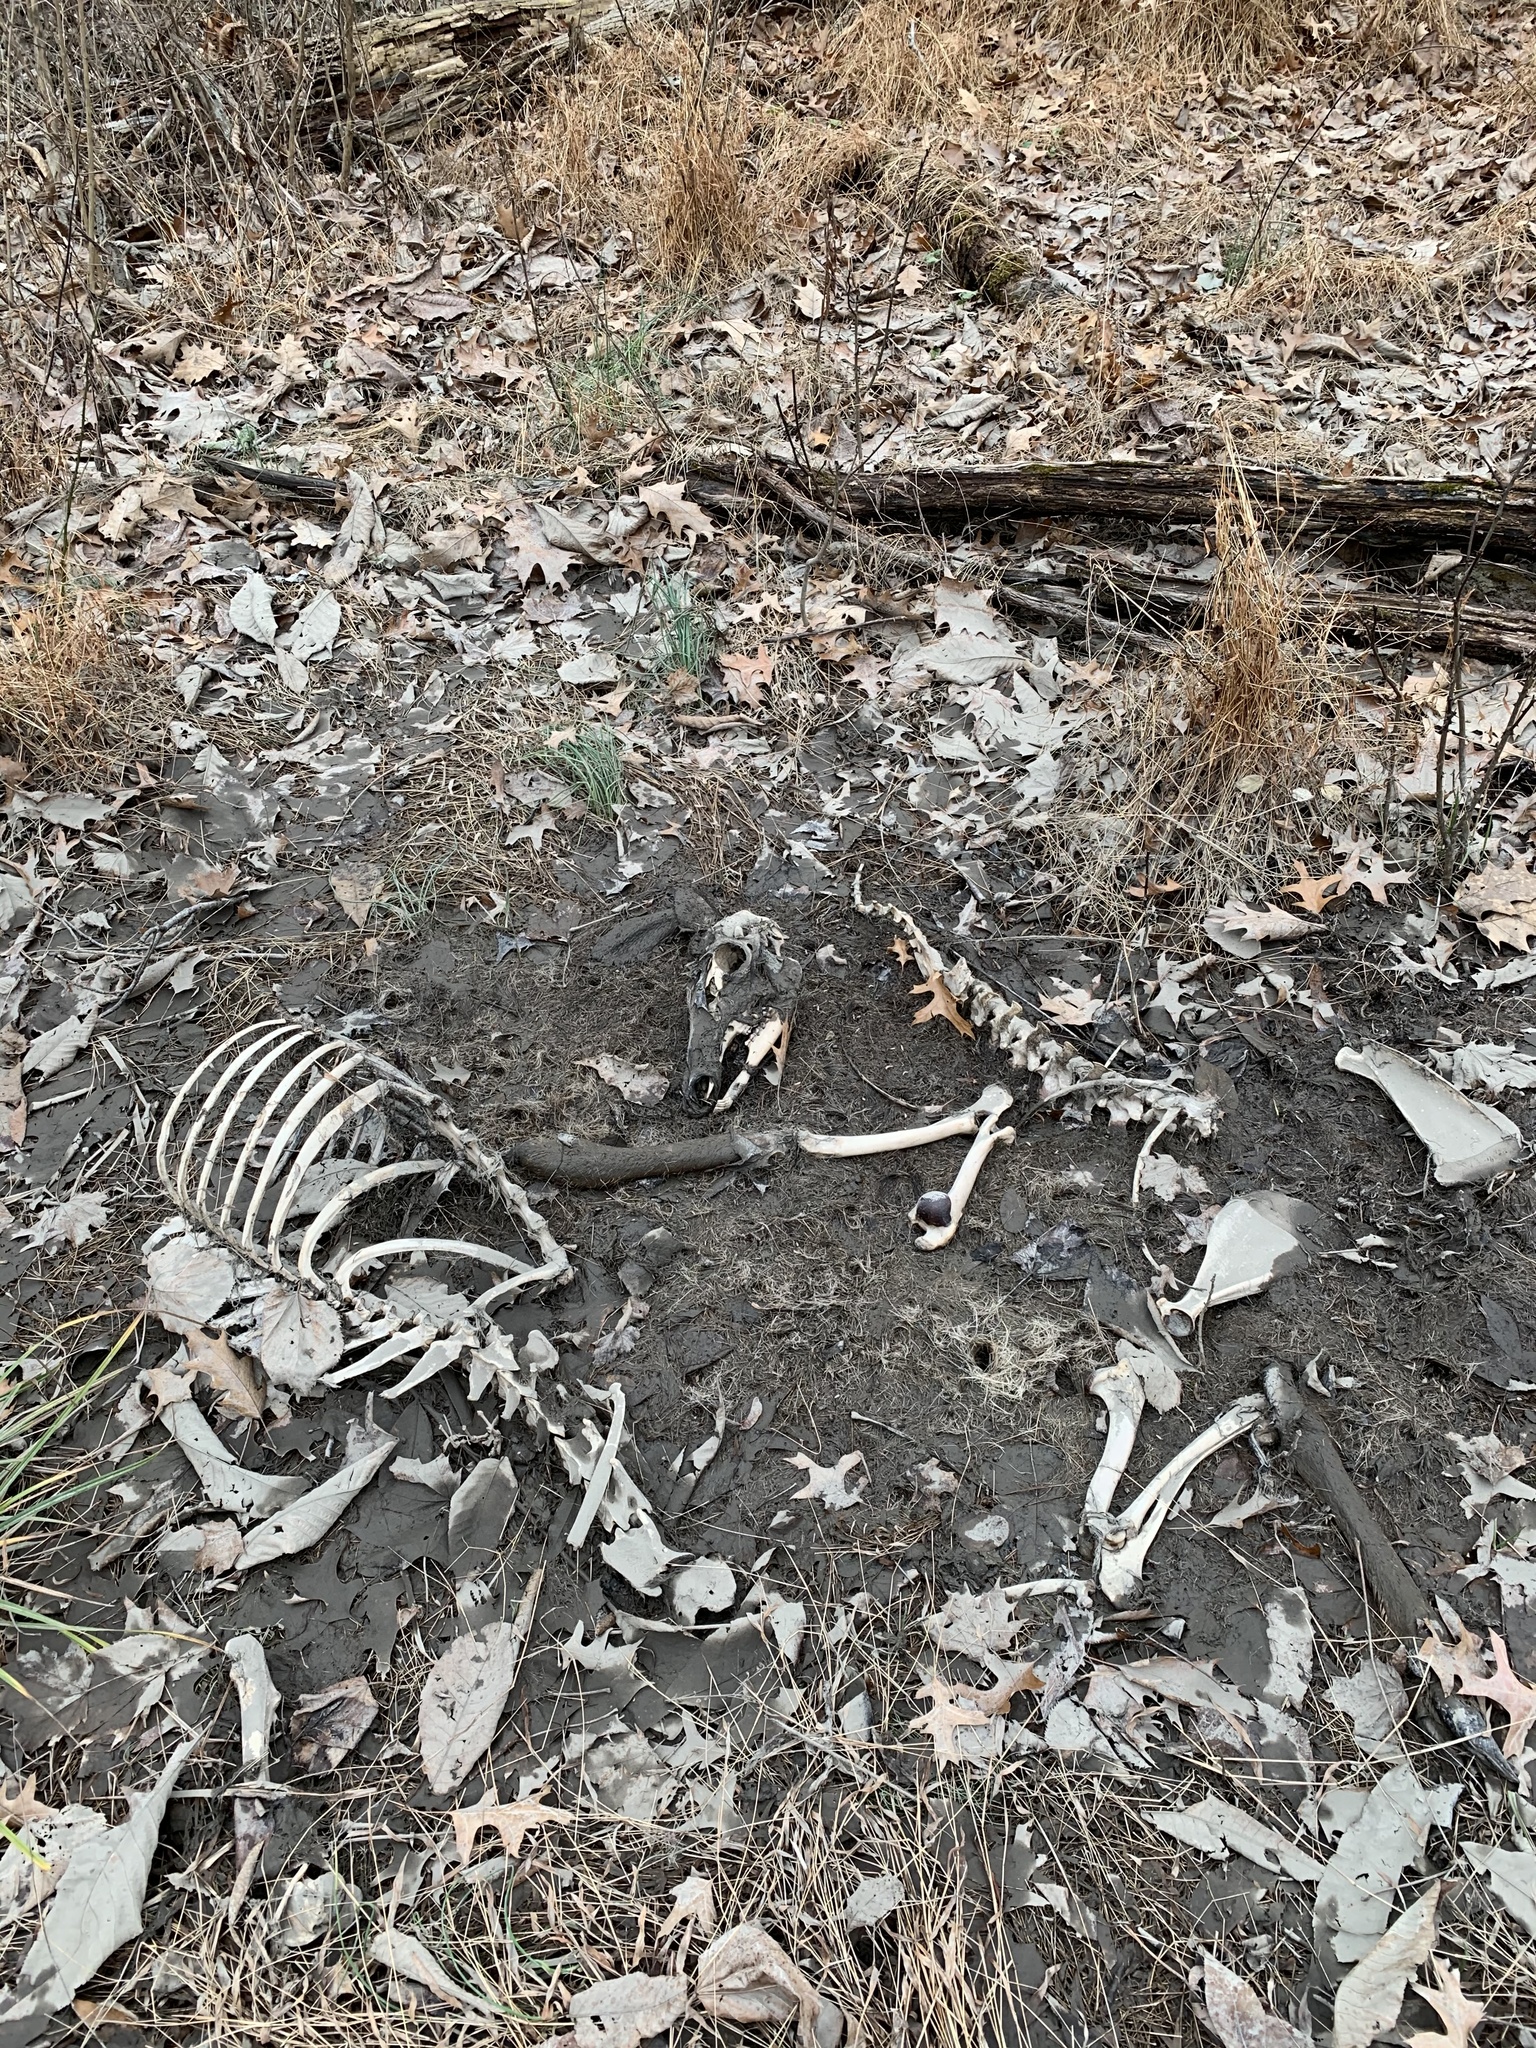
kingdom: Animalia
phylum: Chordata
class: Mammalia
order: Artiodactyla
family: Cervidae
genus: Odocoileus
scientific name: Odocoileus virginianus
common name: White-tailed deer
